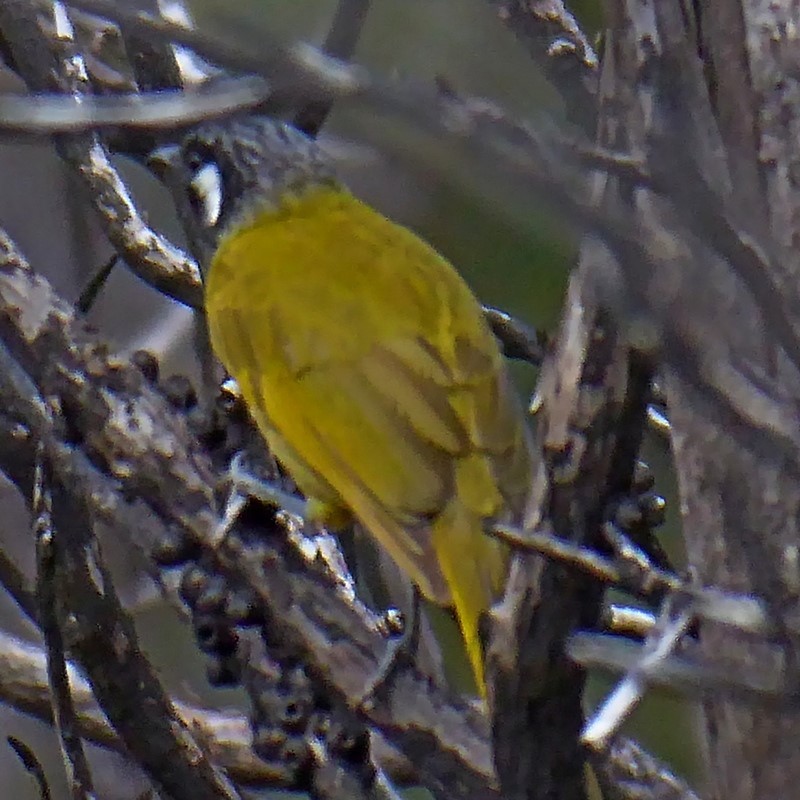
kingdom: Animalia
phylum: Chordata
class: Aves
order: Passeriformes
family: Meliphagidae
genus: Nesoptilotis
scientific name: Nesoptilotis leucotis
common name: White-eared honeyeater
